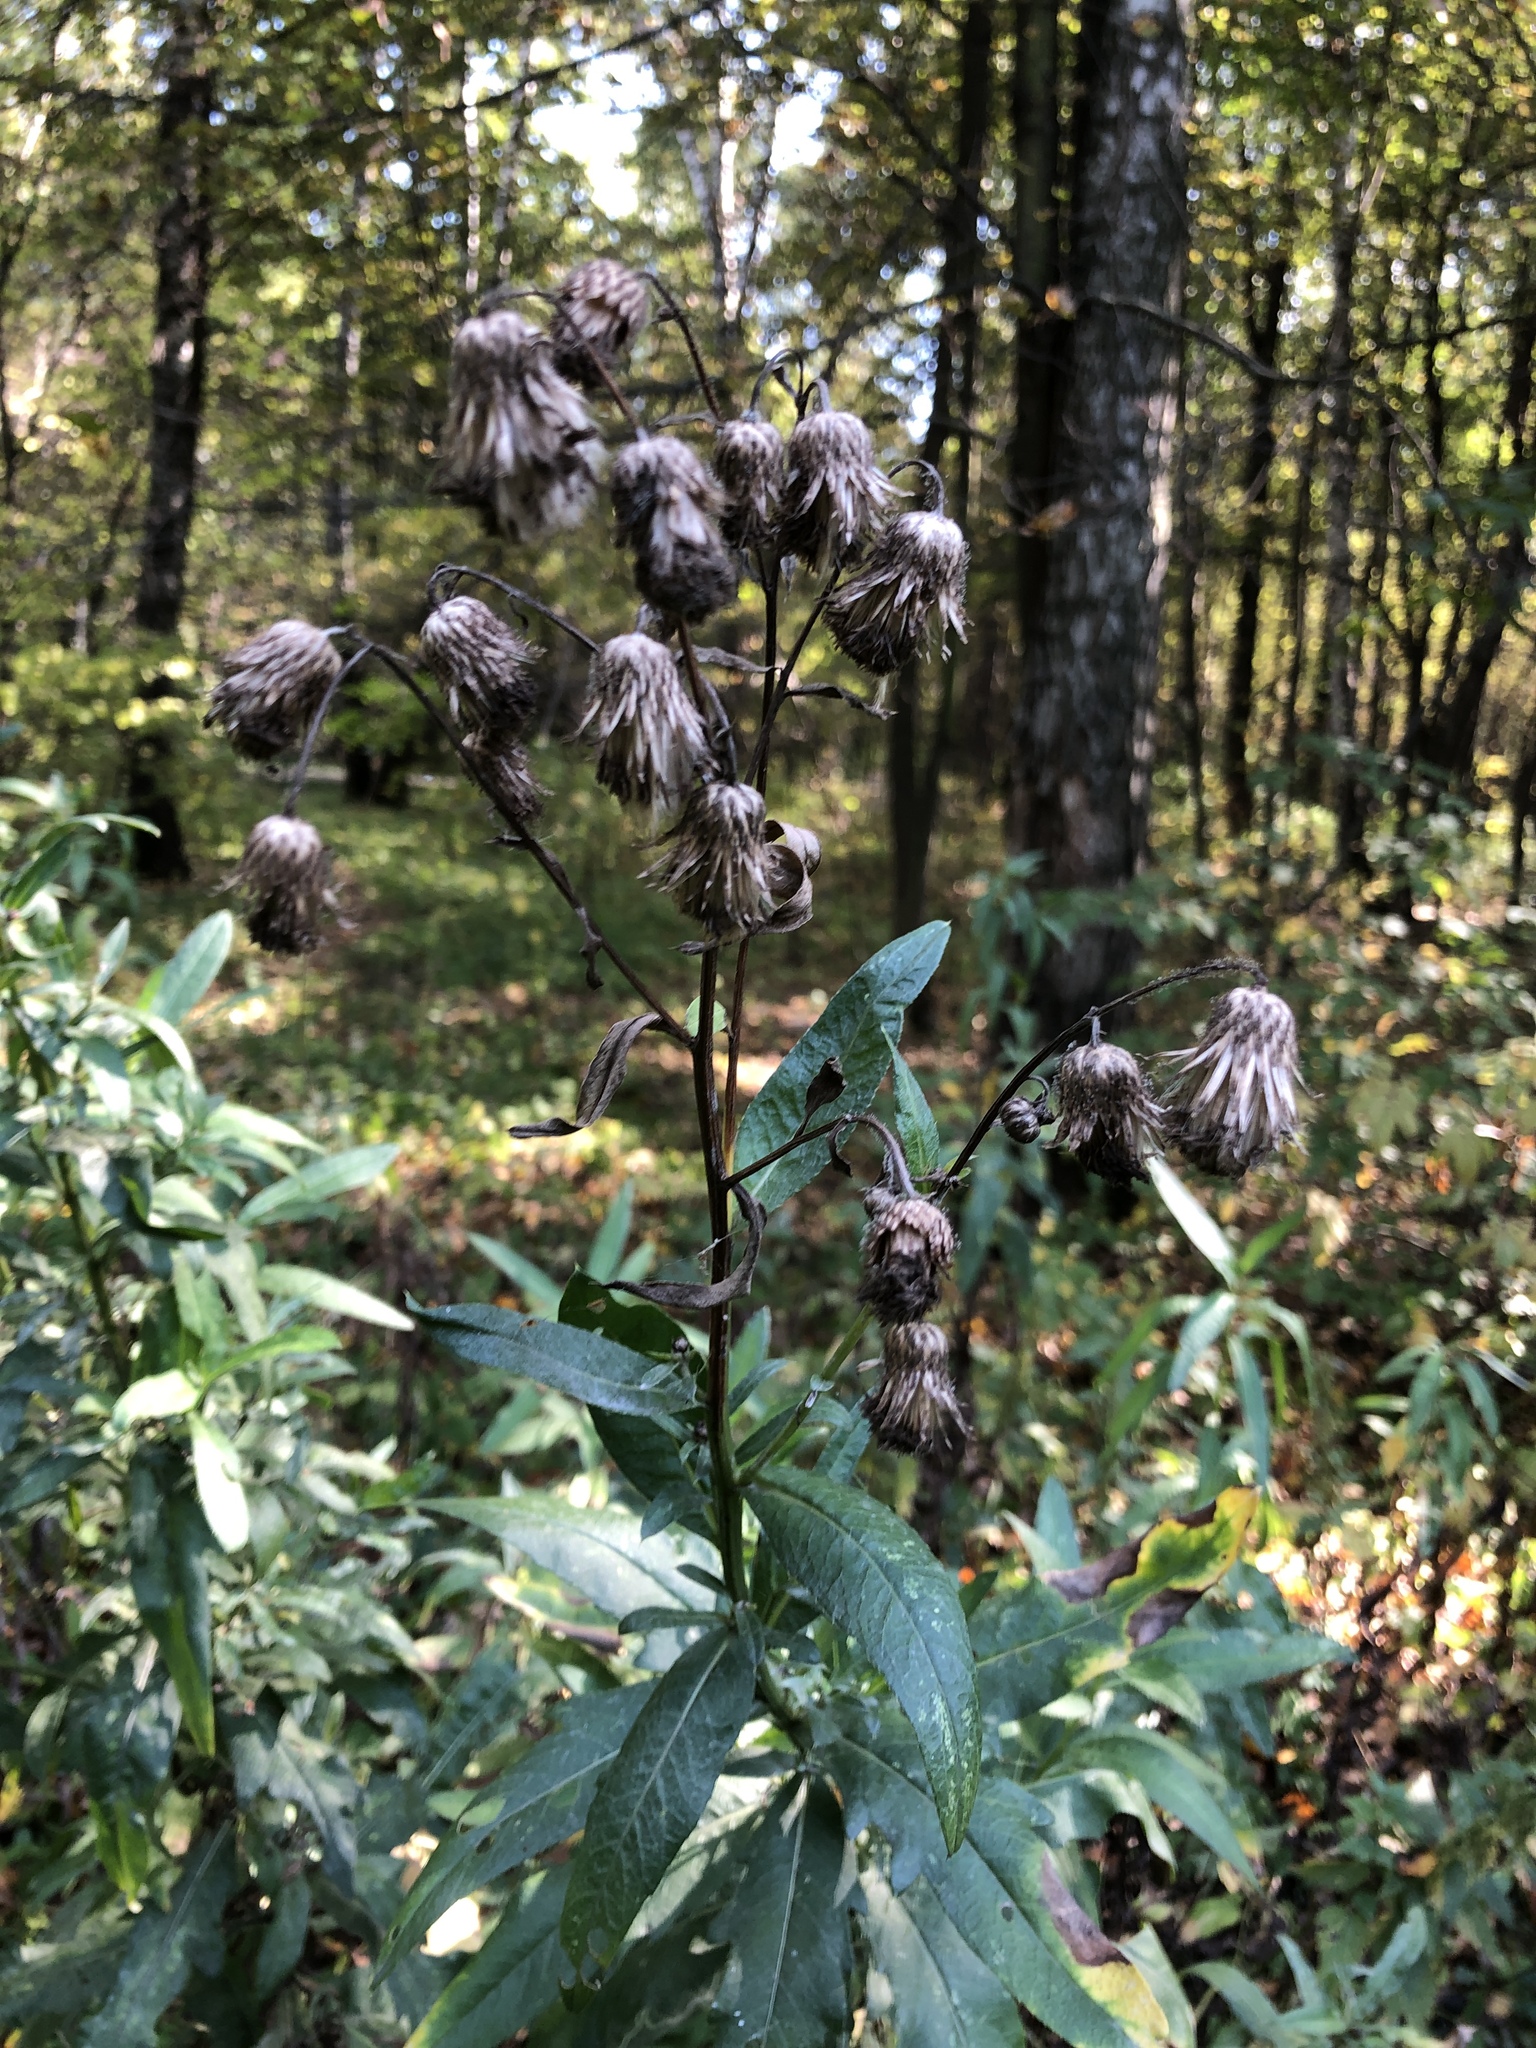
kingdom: Plantae
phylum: Tracheophyta
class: Magnoliopsida
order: Asterales
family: Asteraceae
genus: Cirsium
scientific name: Cirsium arvense
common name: Creeping thistle
